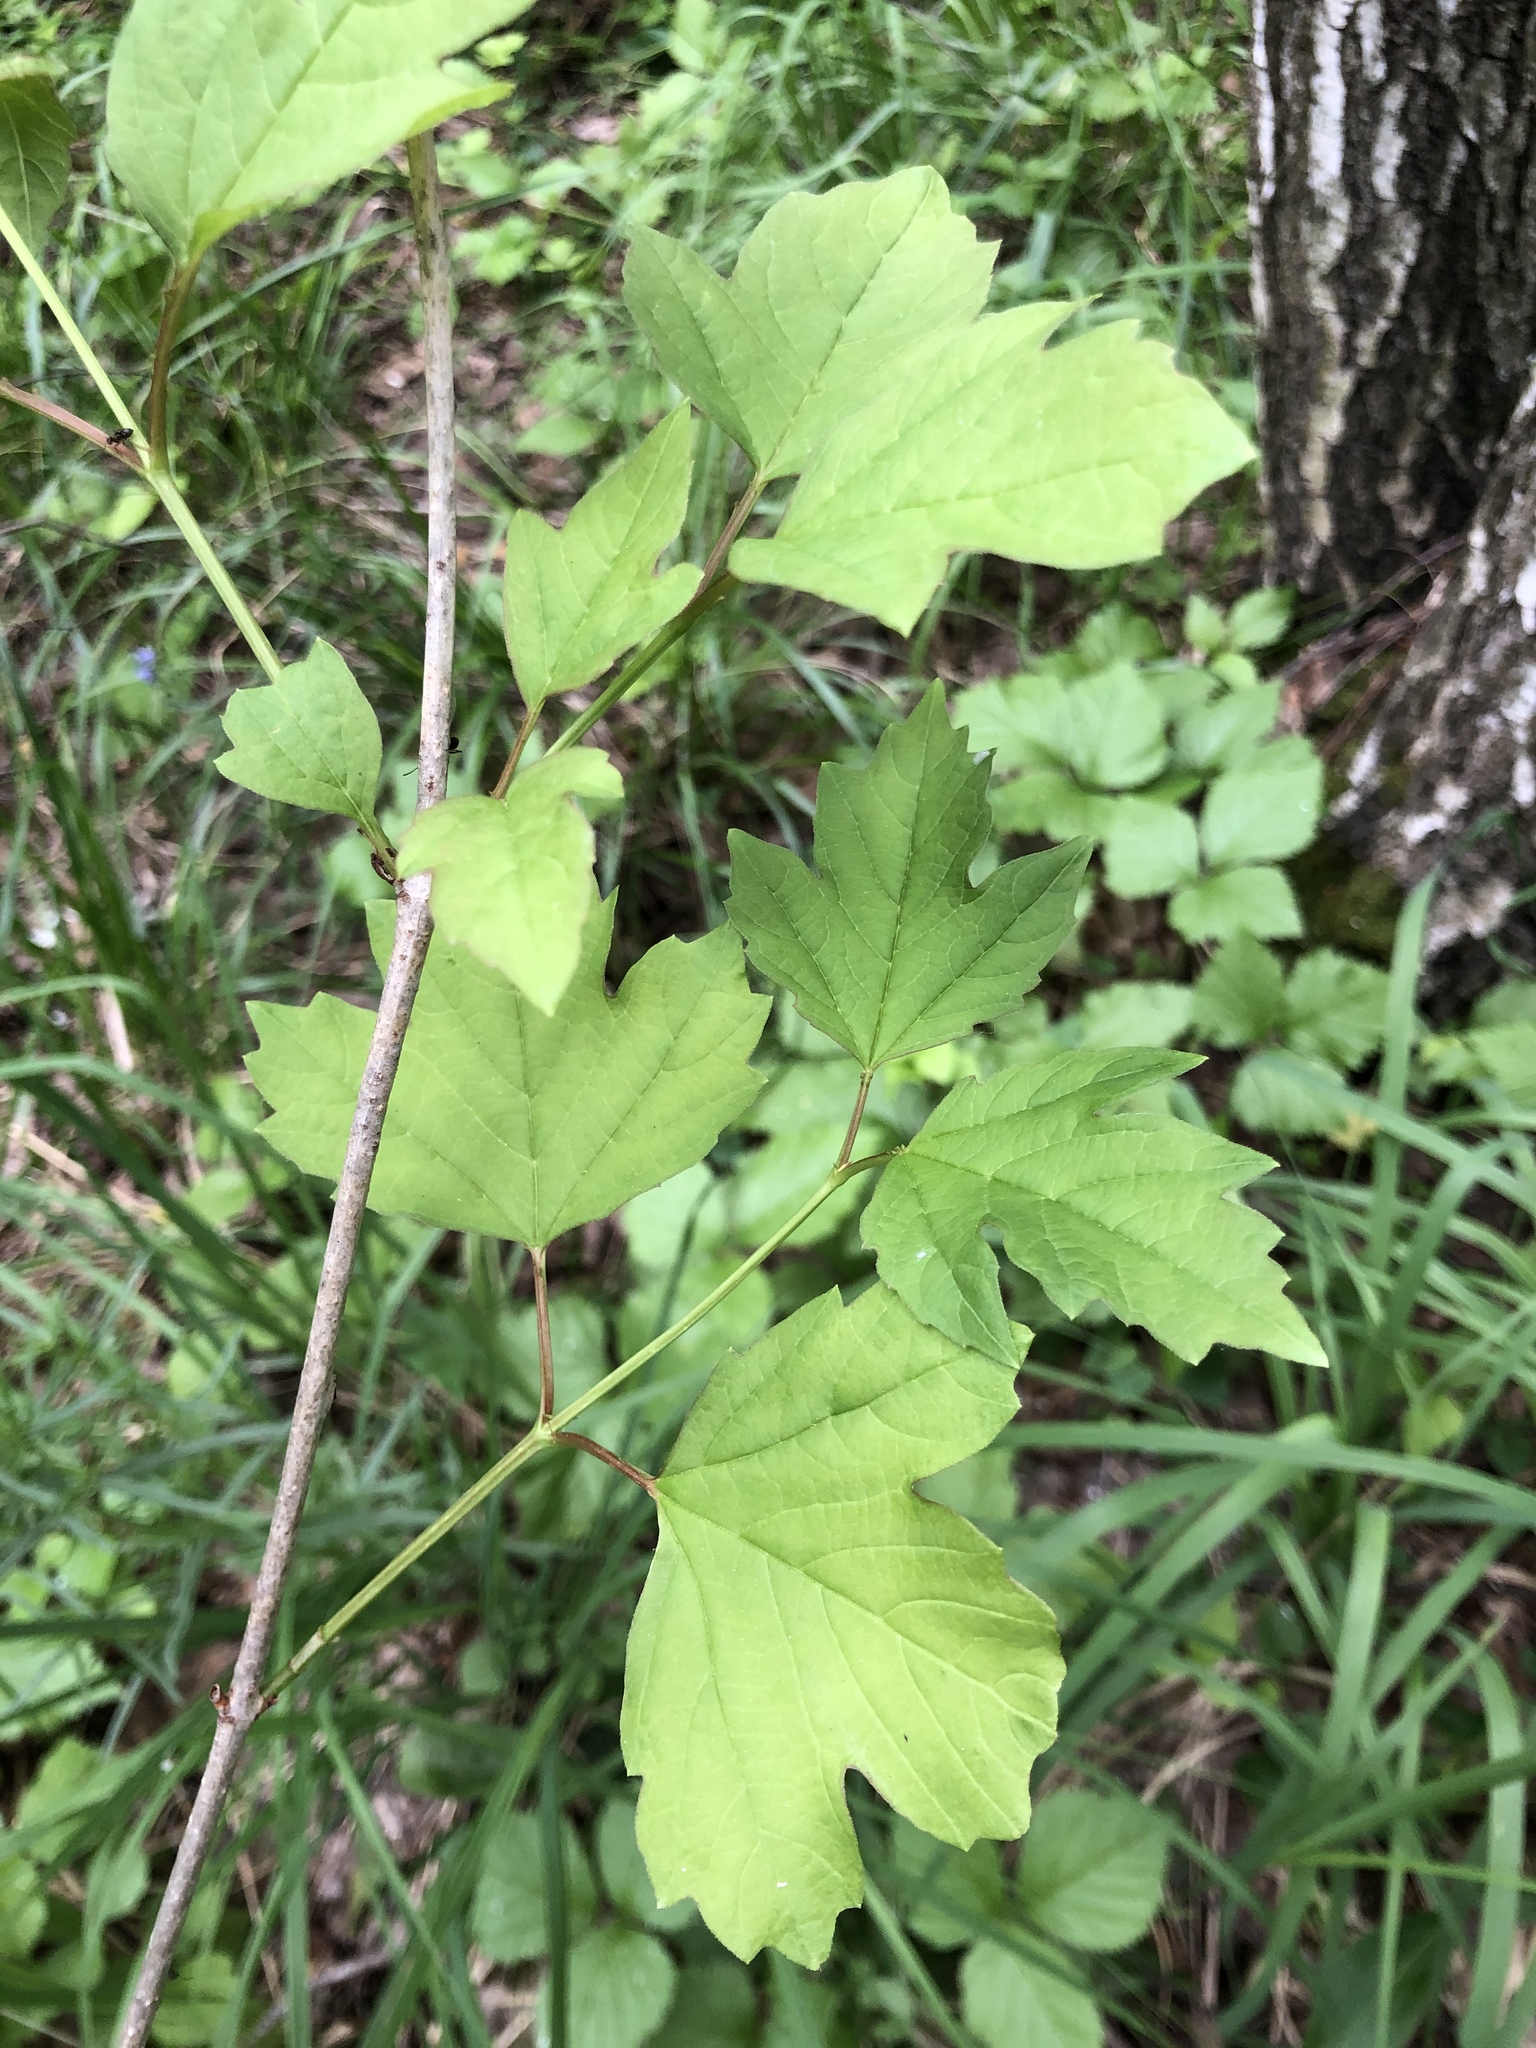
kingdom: Plantae
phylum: Tracheophyta
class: Magnoliopsida
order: Dipsacales
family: Viburnaceae
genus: Viburnum
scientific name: Viburnum opulus
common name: Guelder-rose
